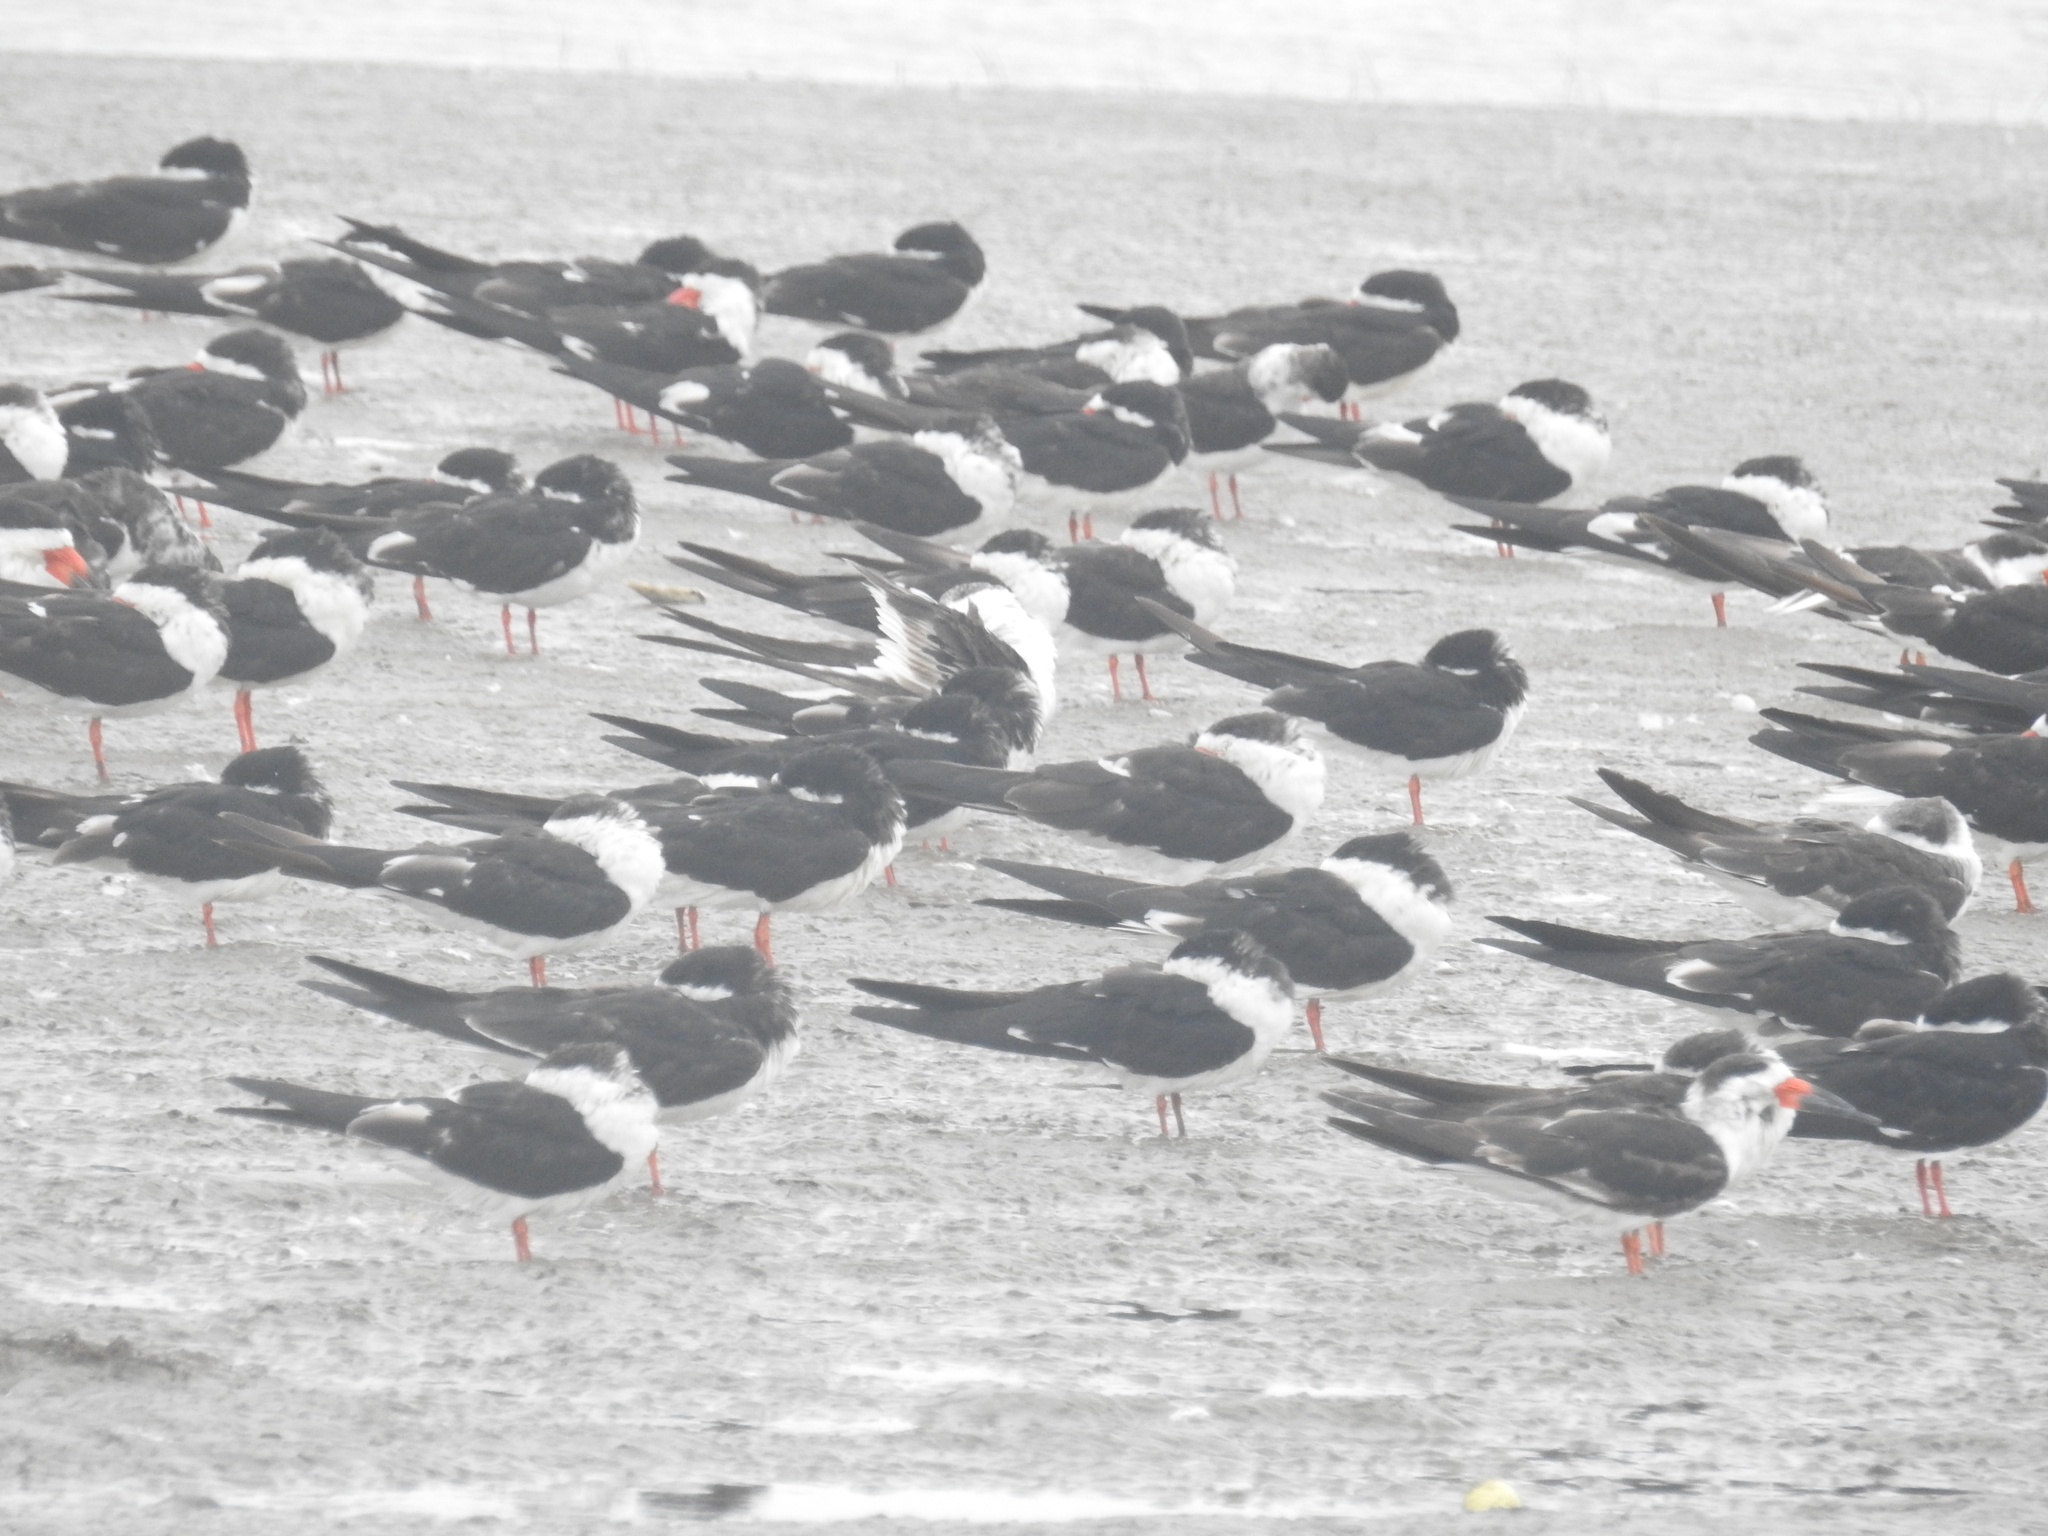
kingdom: Animalia
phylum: Chordata
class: Aves
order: Charadriiformes
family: Laridae
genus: Rynchops
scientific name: Rynchops niger
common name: Black skimmer
